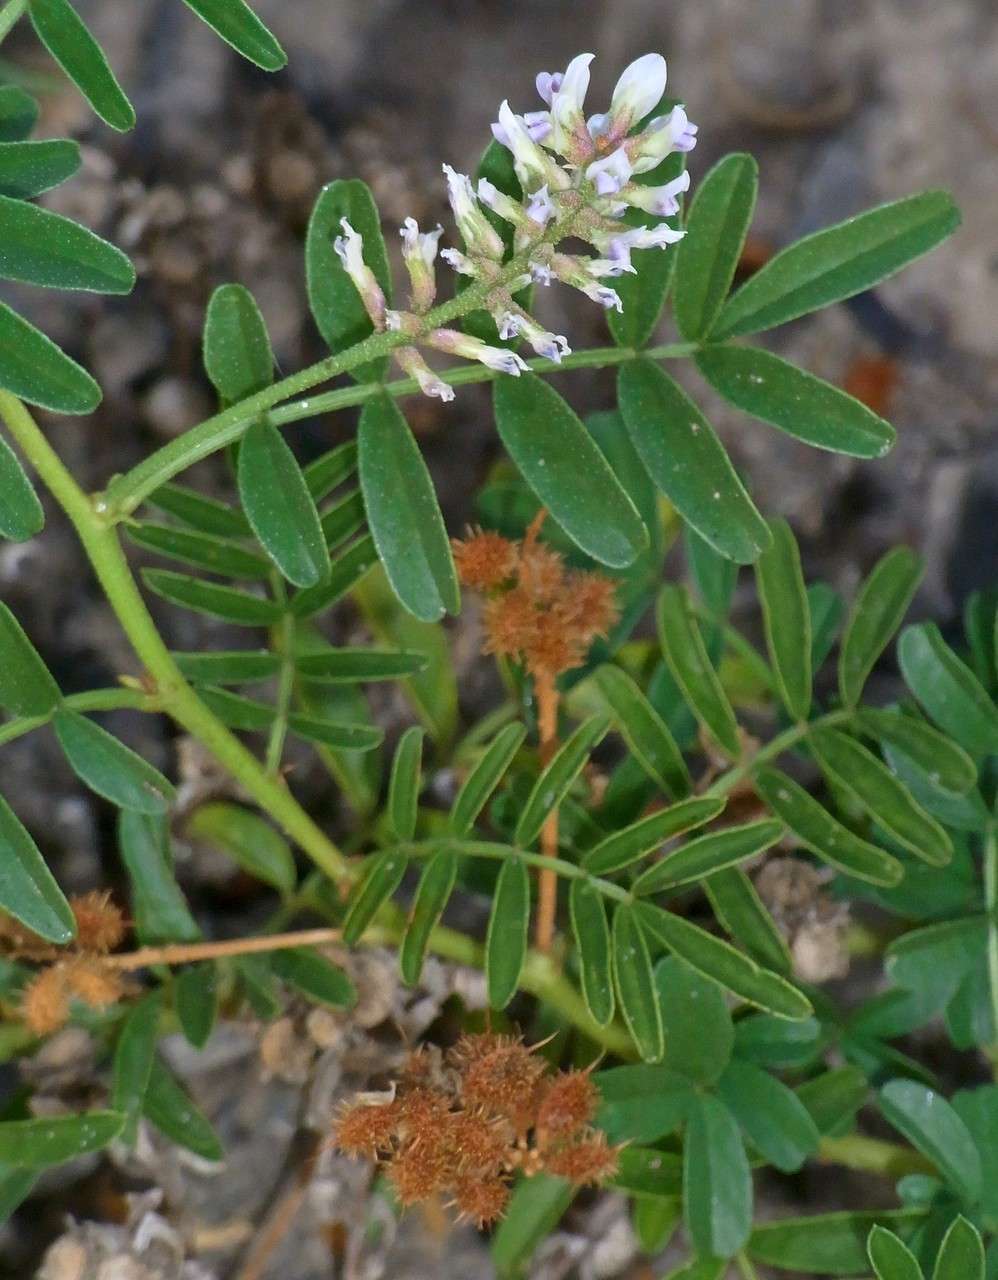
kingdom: Plantae
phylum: Tracheophyta
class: Magnoliopsida
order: Fabales
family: Fabaceae
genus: Glycyrrhiza
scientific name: Glycyrrhiza acanthocarpa
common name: Southern liquorice
